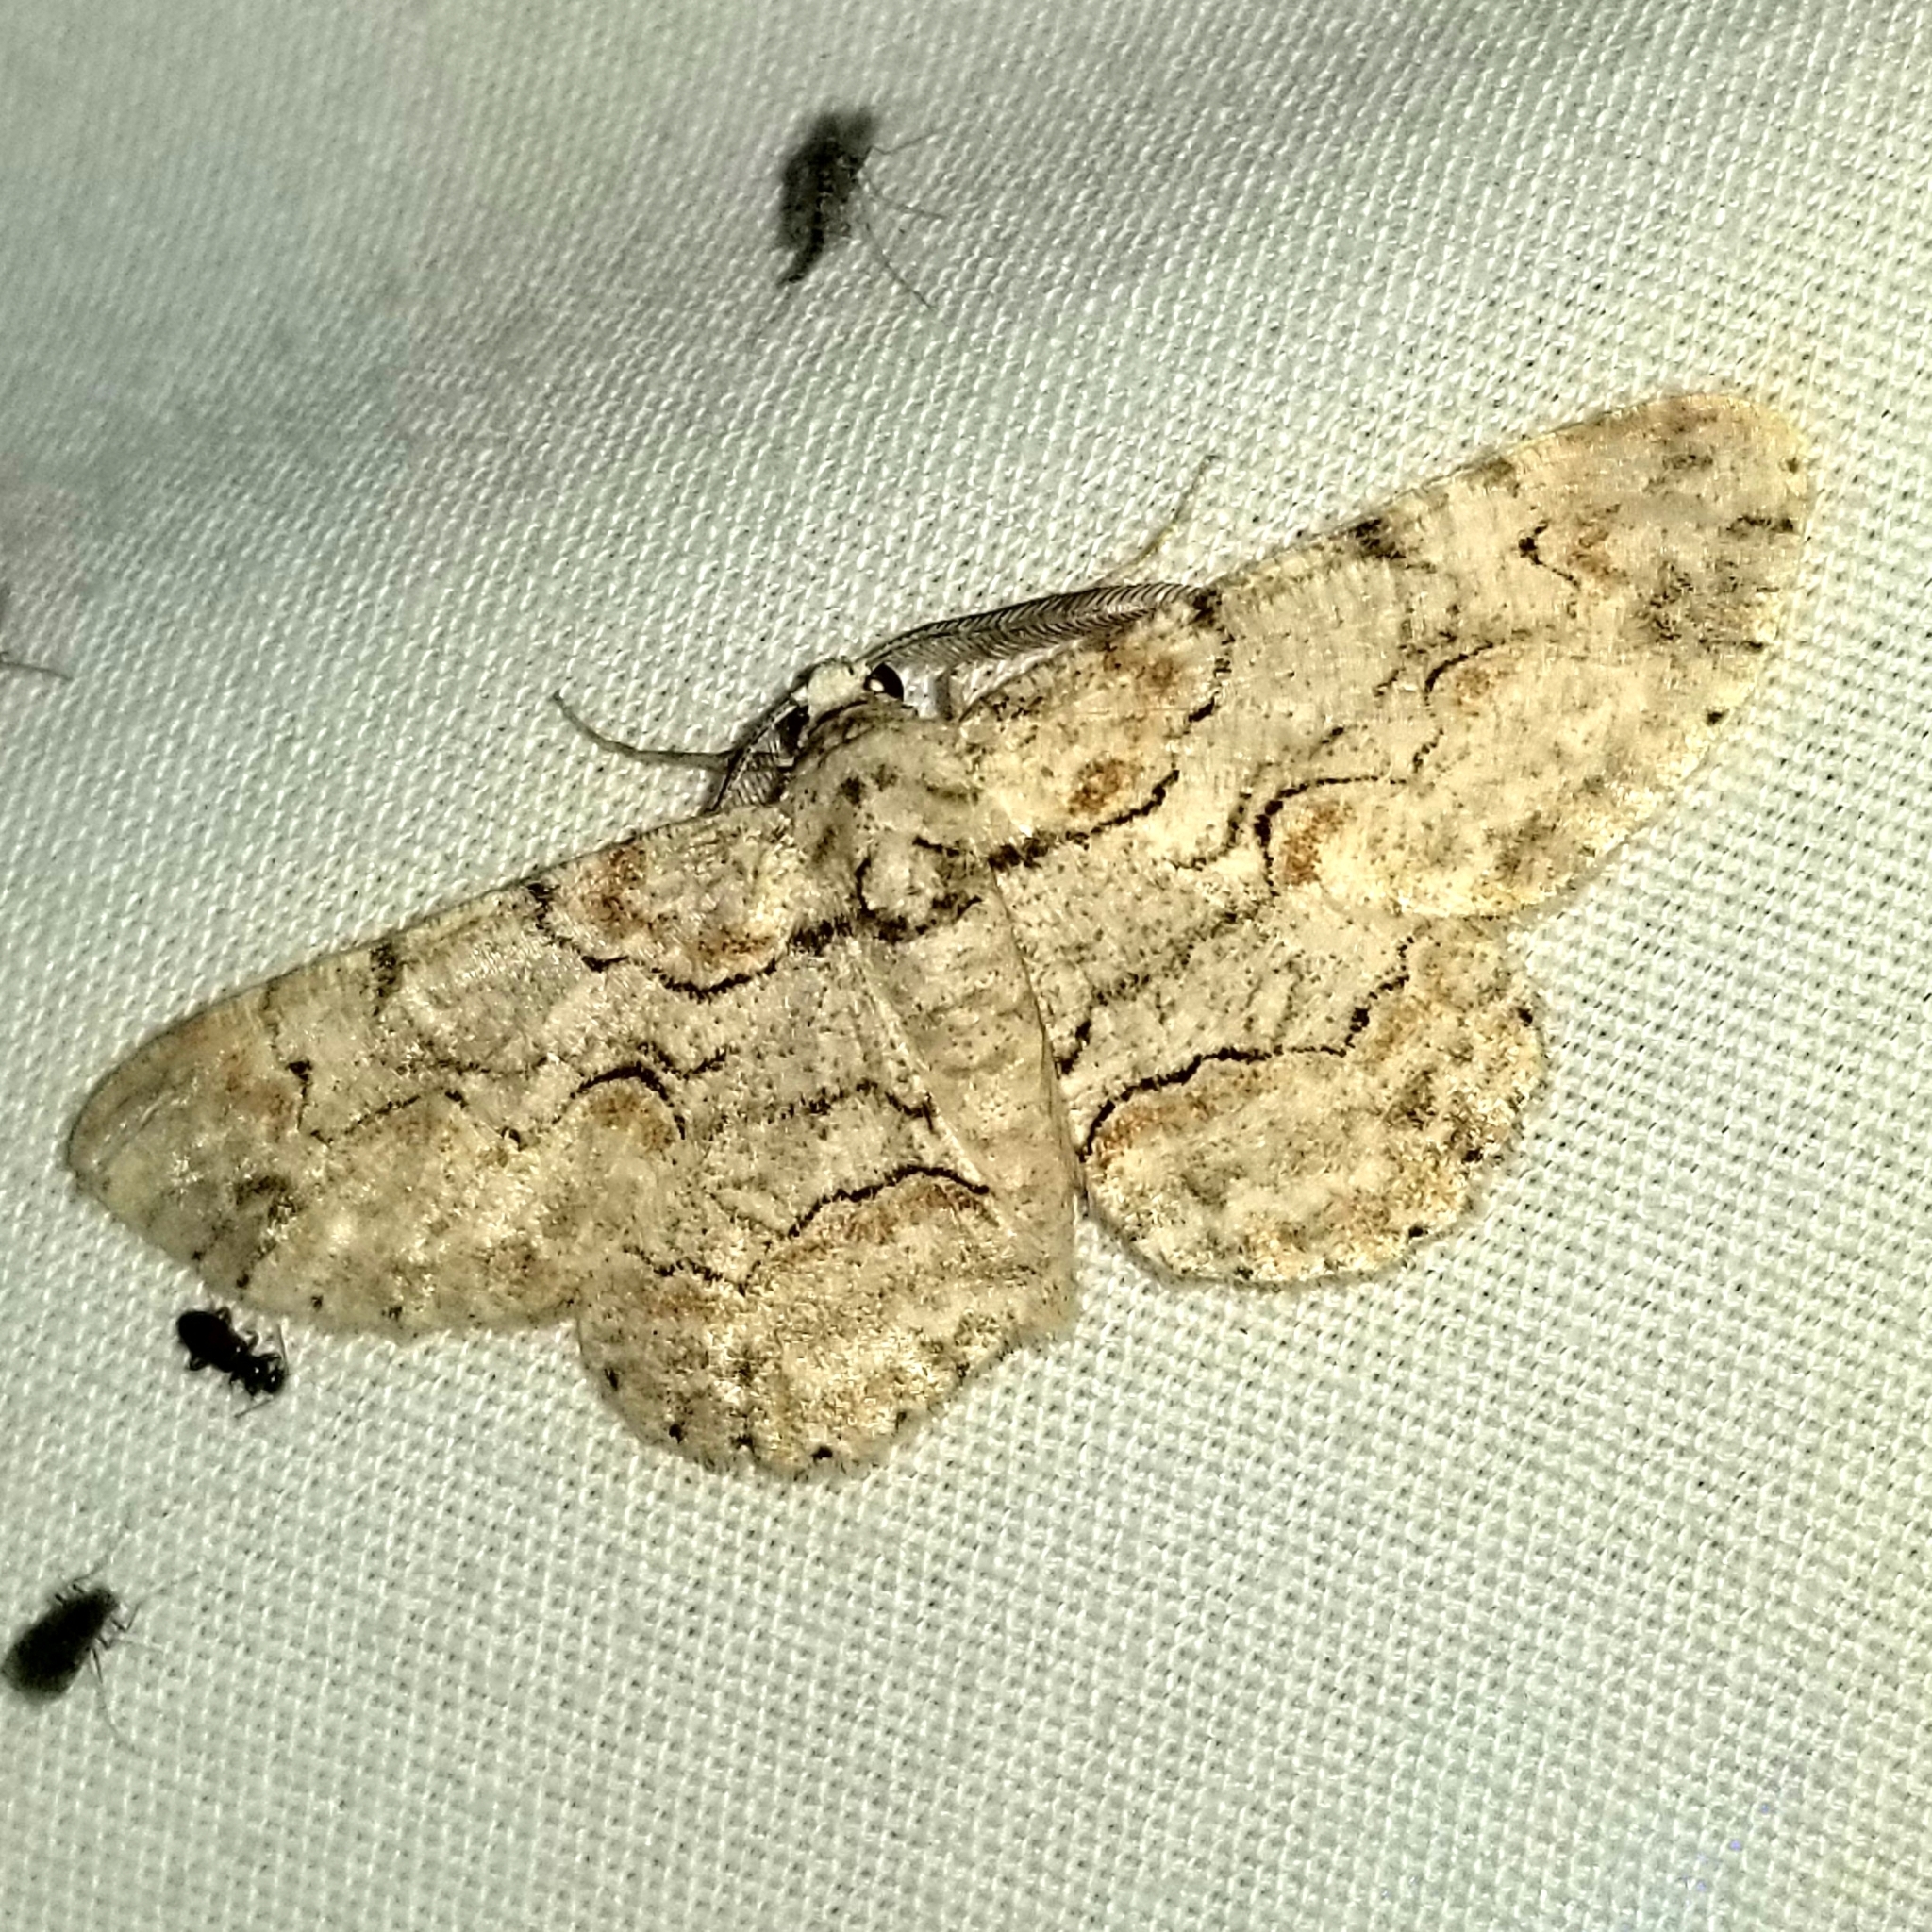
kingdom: Animalia
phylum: Arthropoda
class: Insecta
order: Lepidoptera
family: Geometridae
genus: Iridopsis
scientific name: Iridopsis defectaria
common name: Brown-shaded gray
